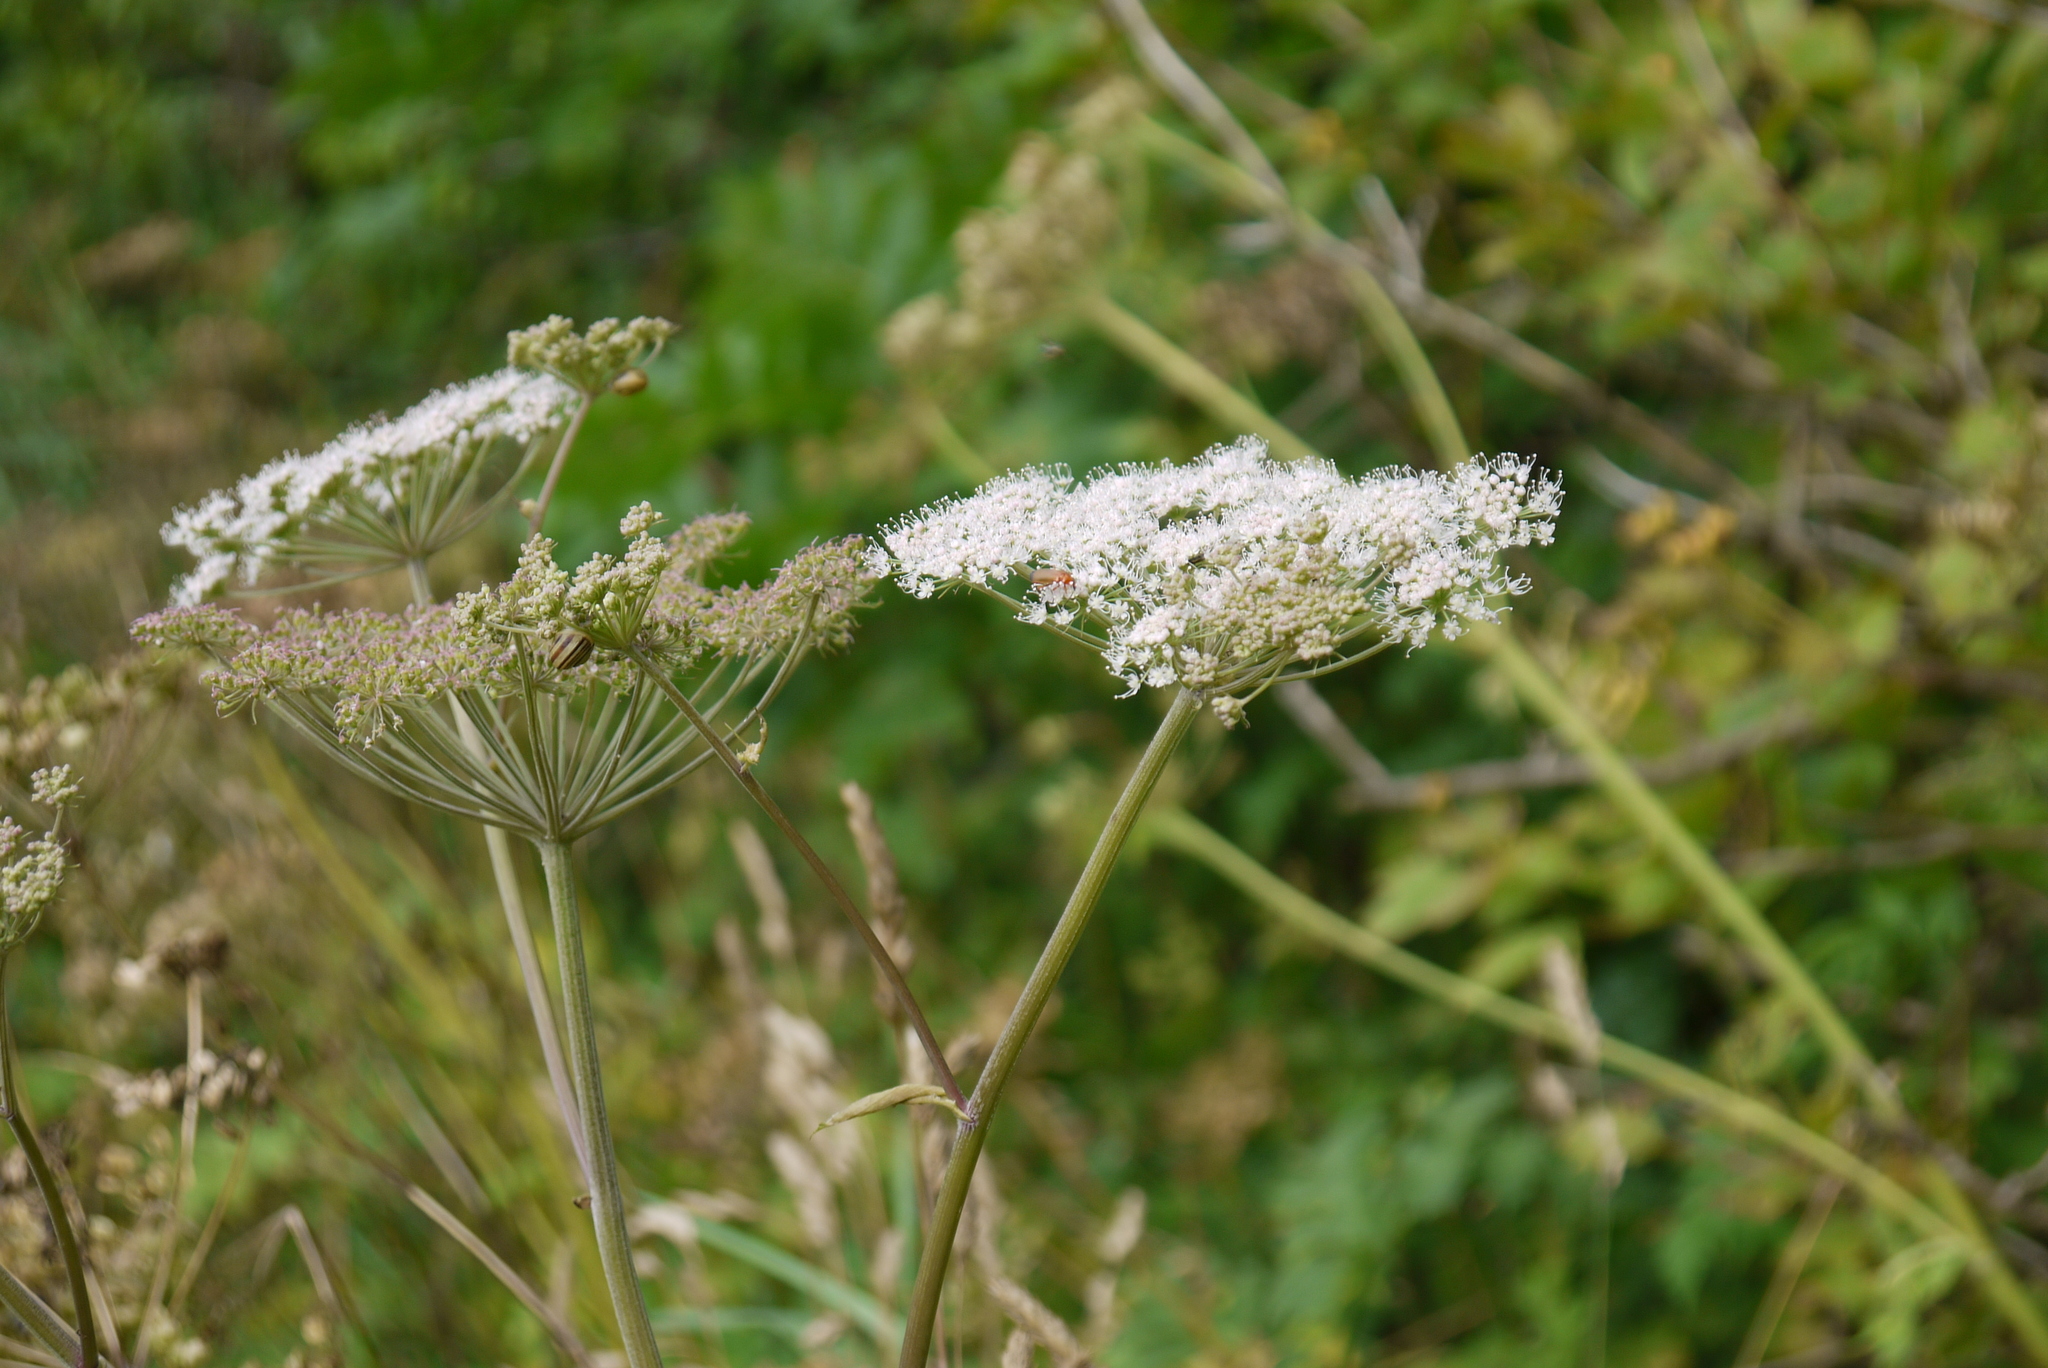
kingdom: Plantae
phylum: Tracheophyta
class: Magnoliopsida
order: Apiales
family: Apiaceae
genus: Angelica
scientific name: Angelica sylvestris
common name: Wild angelica
